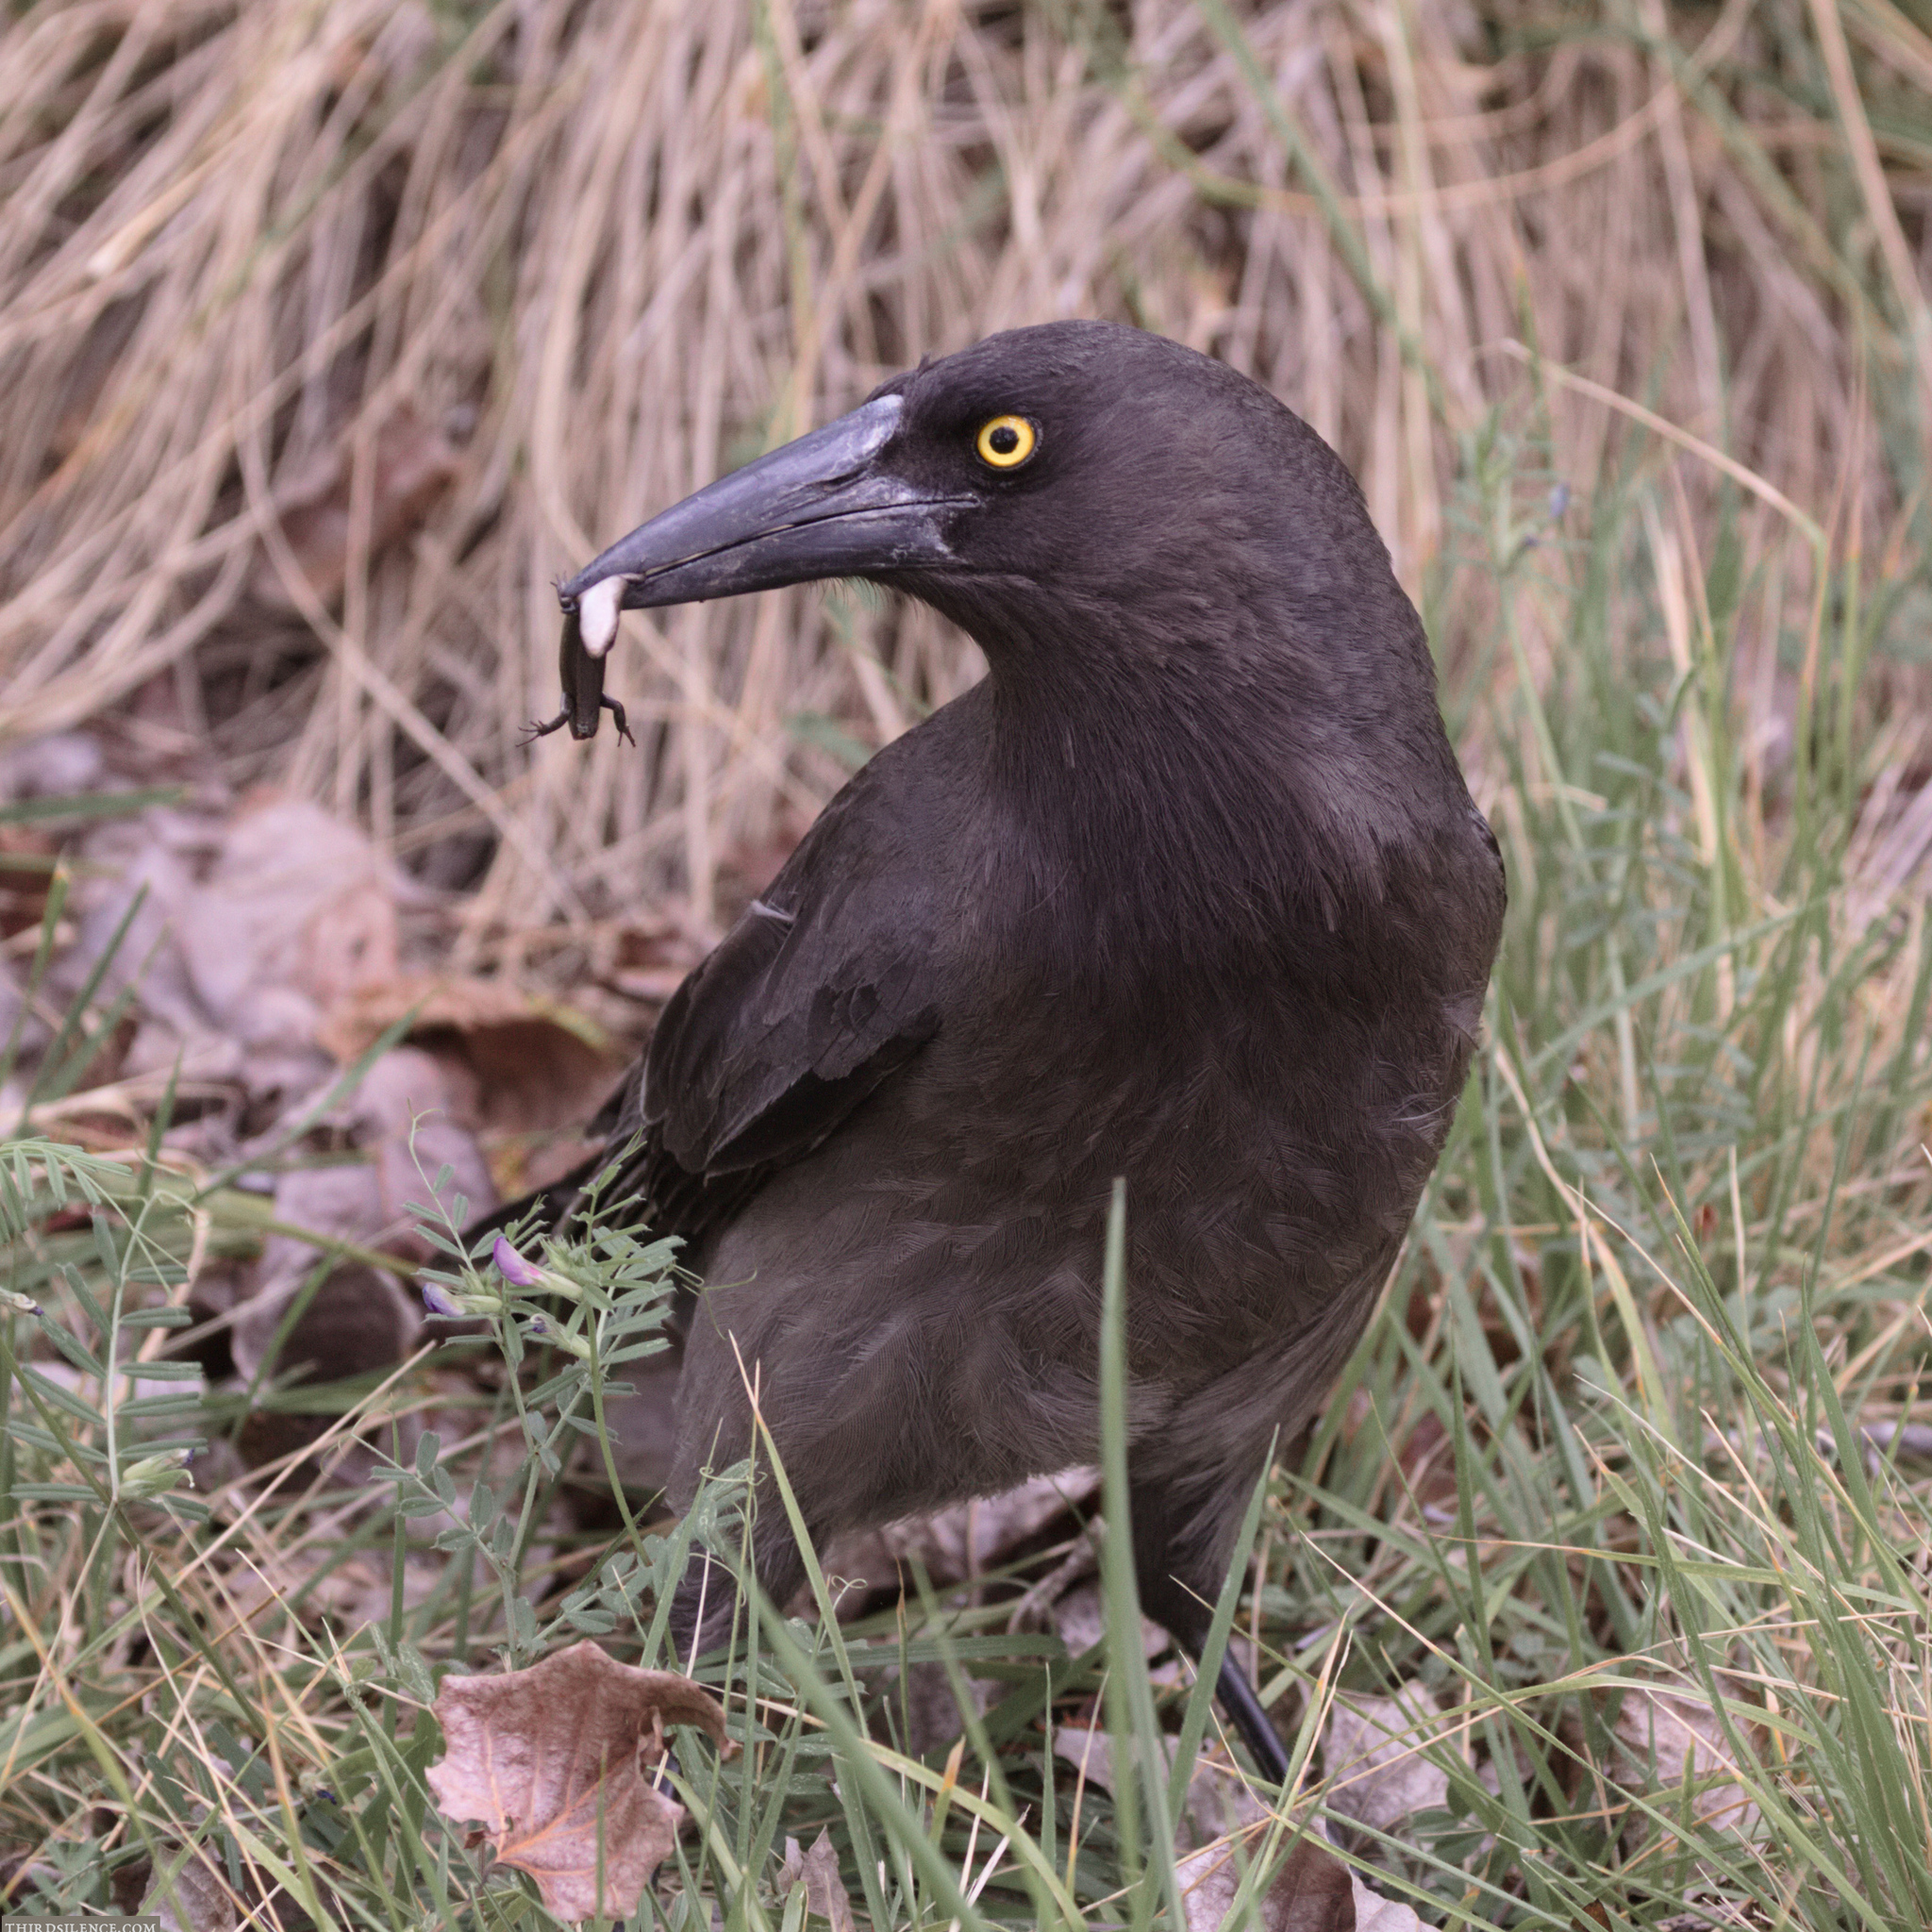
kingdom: Animalia
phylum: Chordata
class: Aves
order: Passeriformes
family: Cracticidae
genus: Strepera
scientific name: Strepera versicolor
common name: Grey currawong
